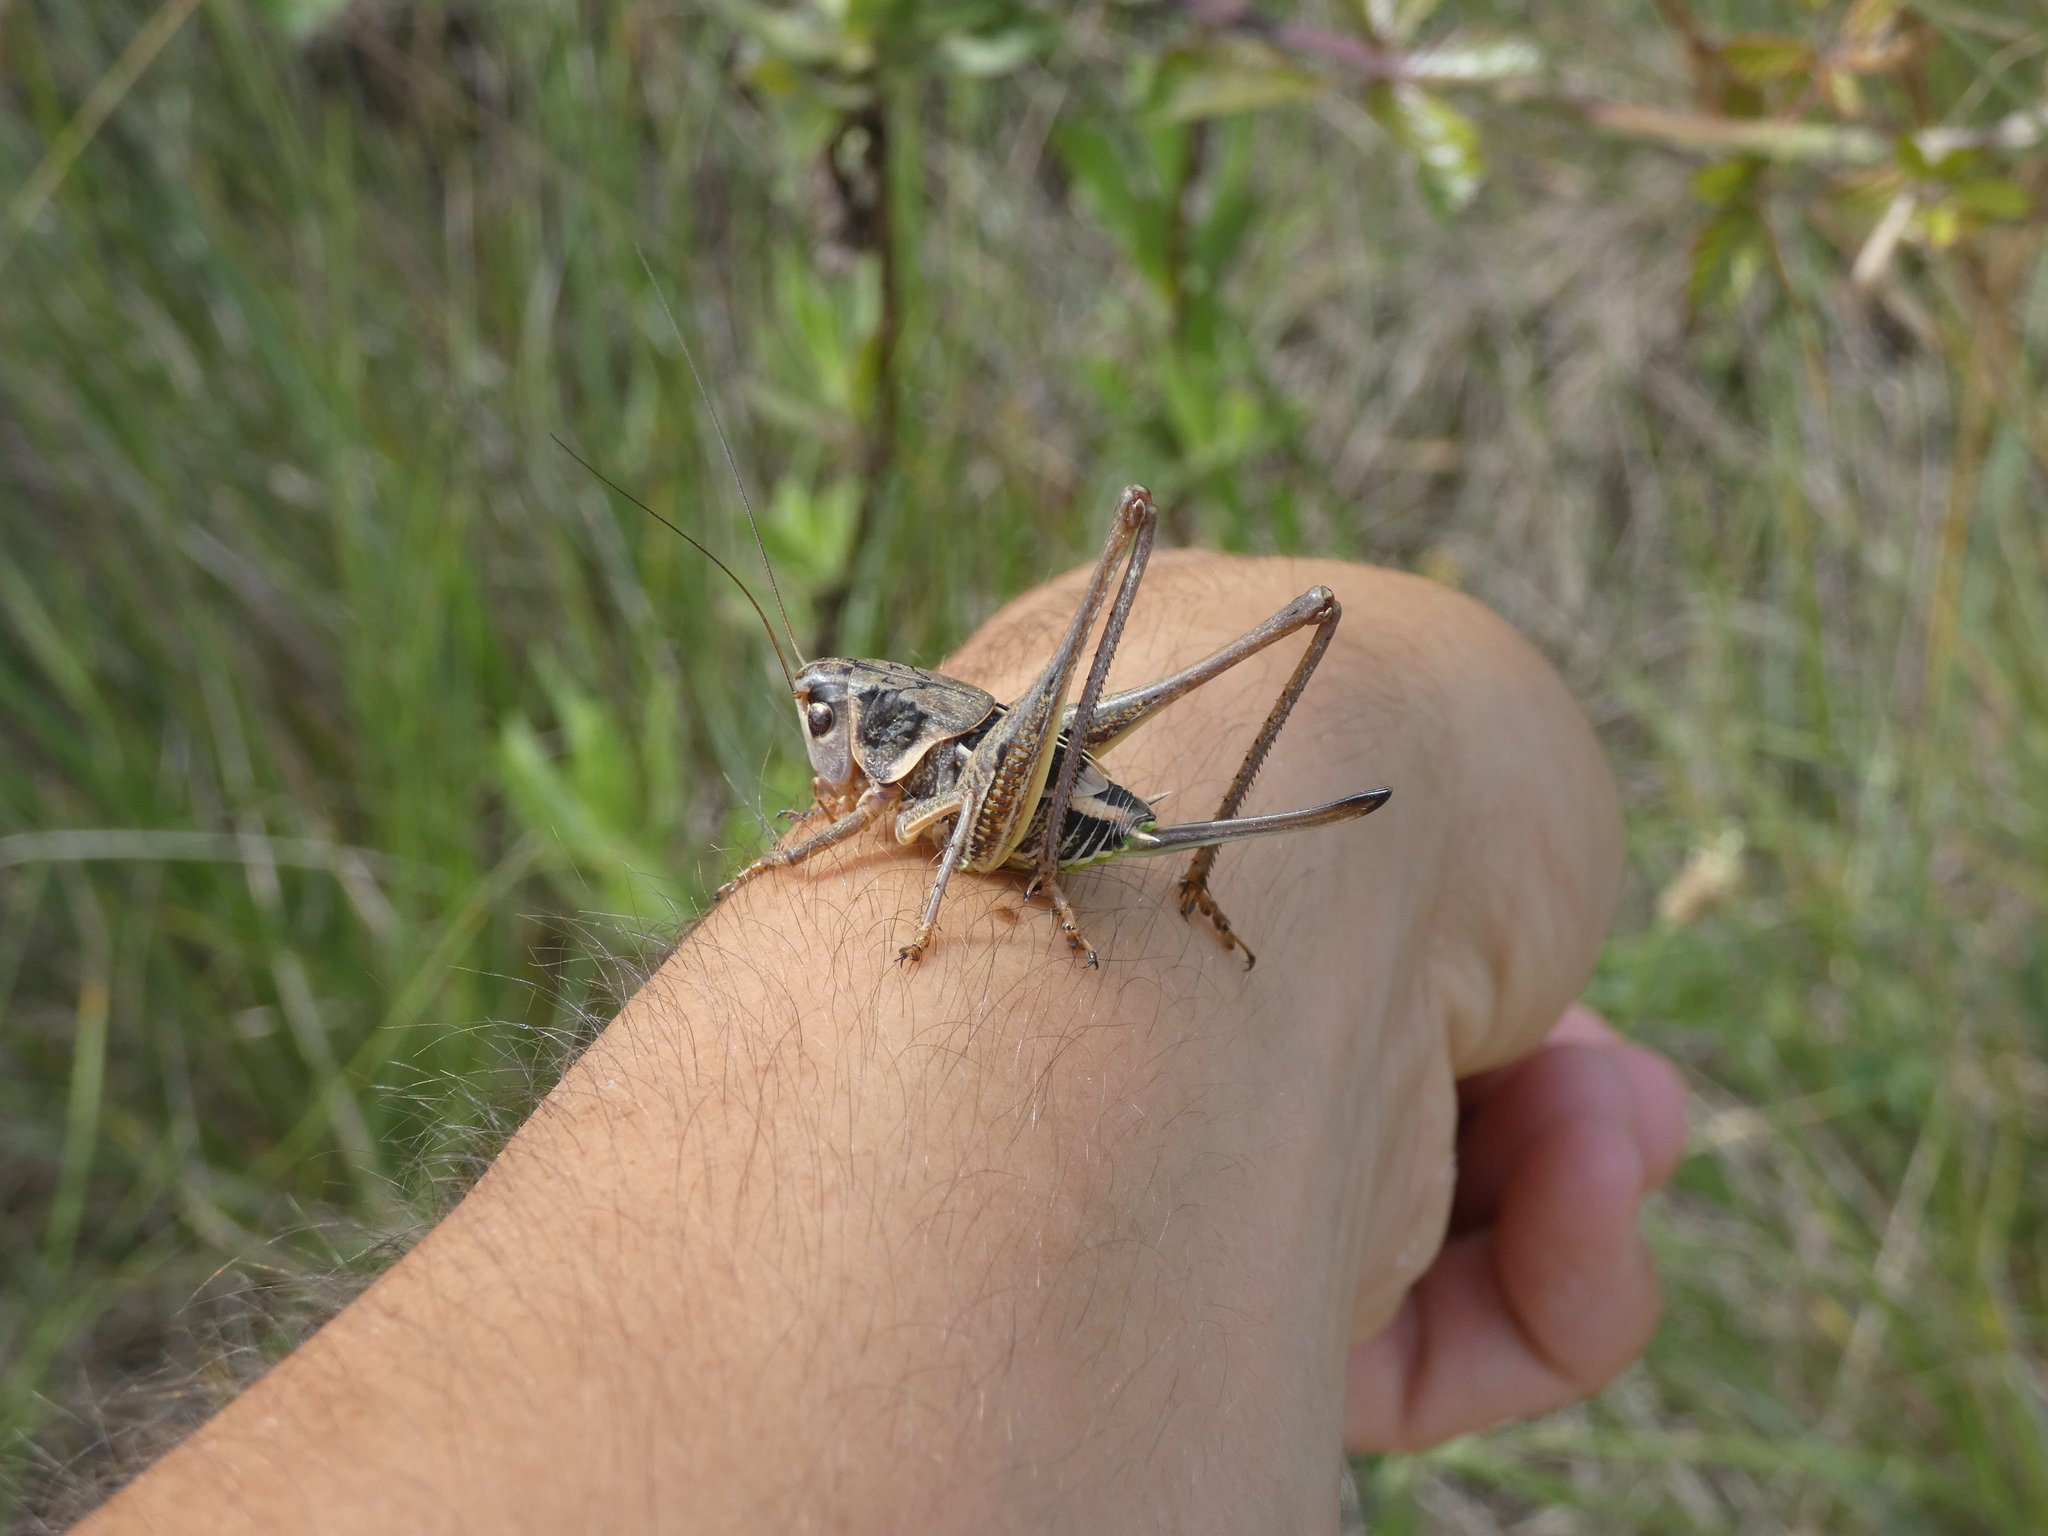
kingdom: Animalia
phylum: Arthropoda
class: Insecta
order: Orthoptera
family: Tettigoniidae
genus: Decticus
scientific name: Decticus albifrons
